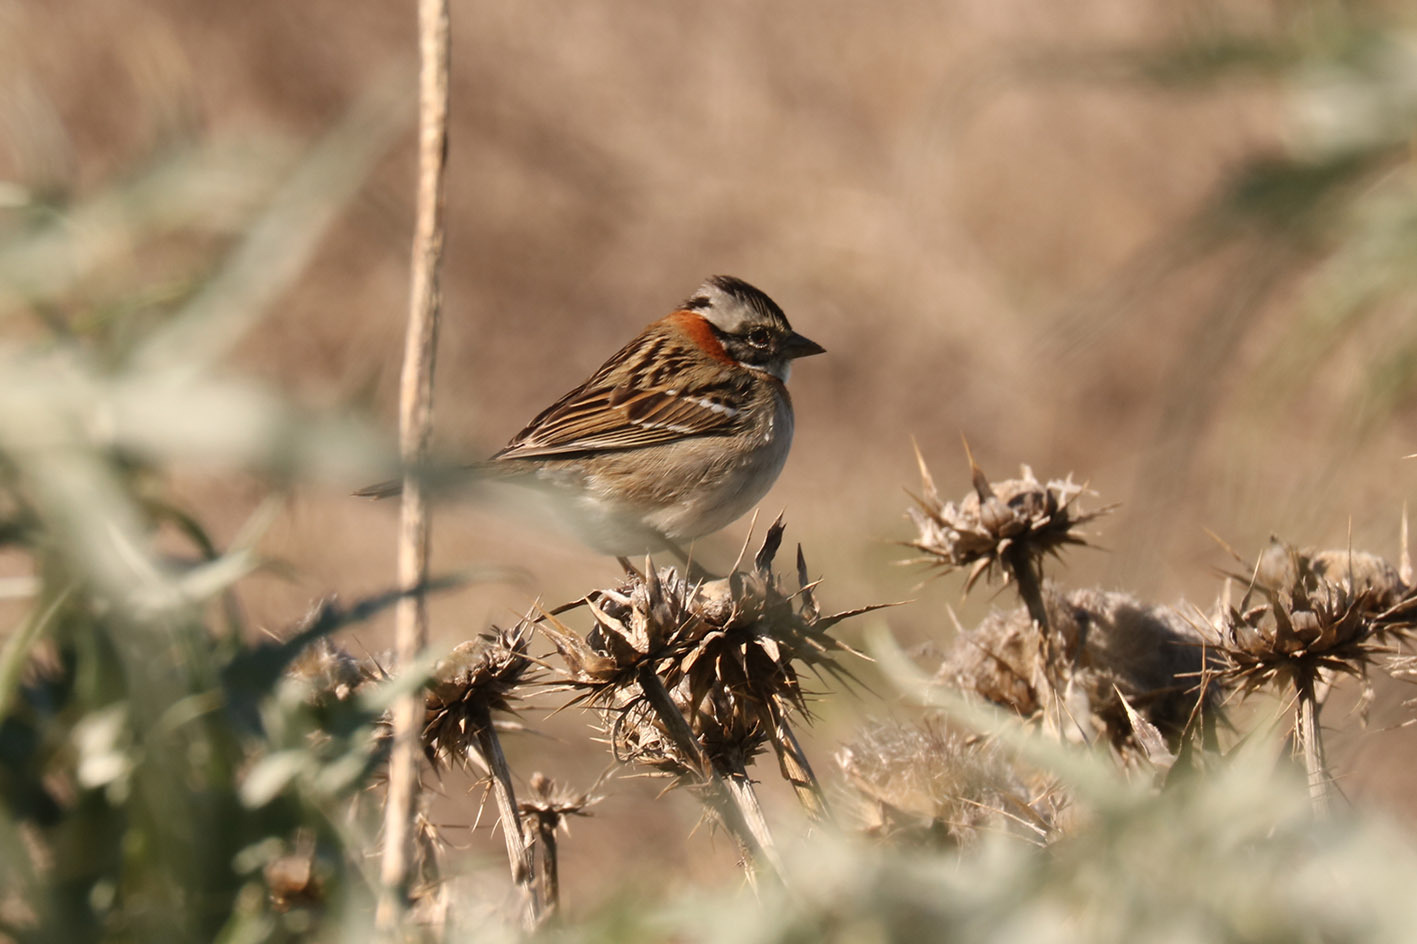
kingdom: Animalia
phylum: Chordata
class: Aves
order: Passeriformes
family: Passerellidae
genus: Zonotrichia
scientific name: Zonotrichia capensis
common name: Rufous-collared sparrow
